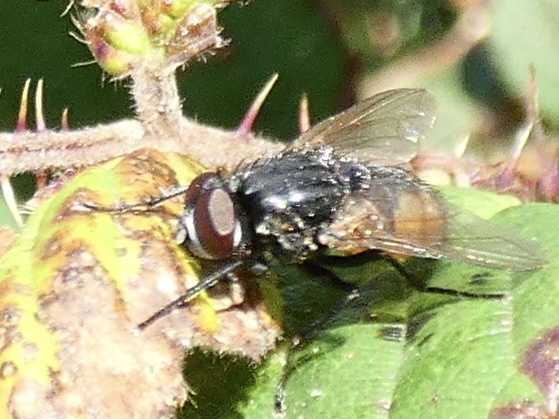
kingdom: Animalia
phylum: Arthropoda
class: Insecta
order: Diptera
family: Muscidae
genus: Musca
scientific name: Musca autumnalis
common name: Face fly
